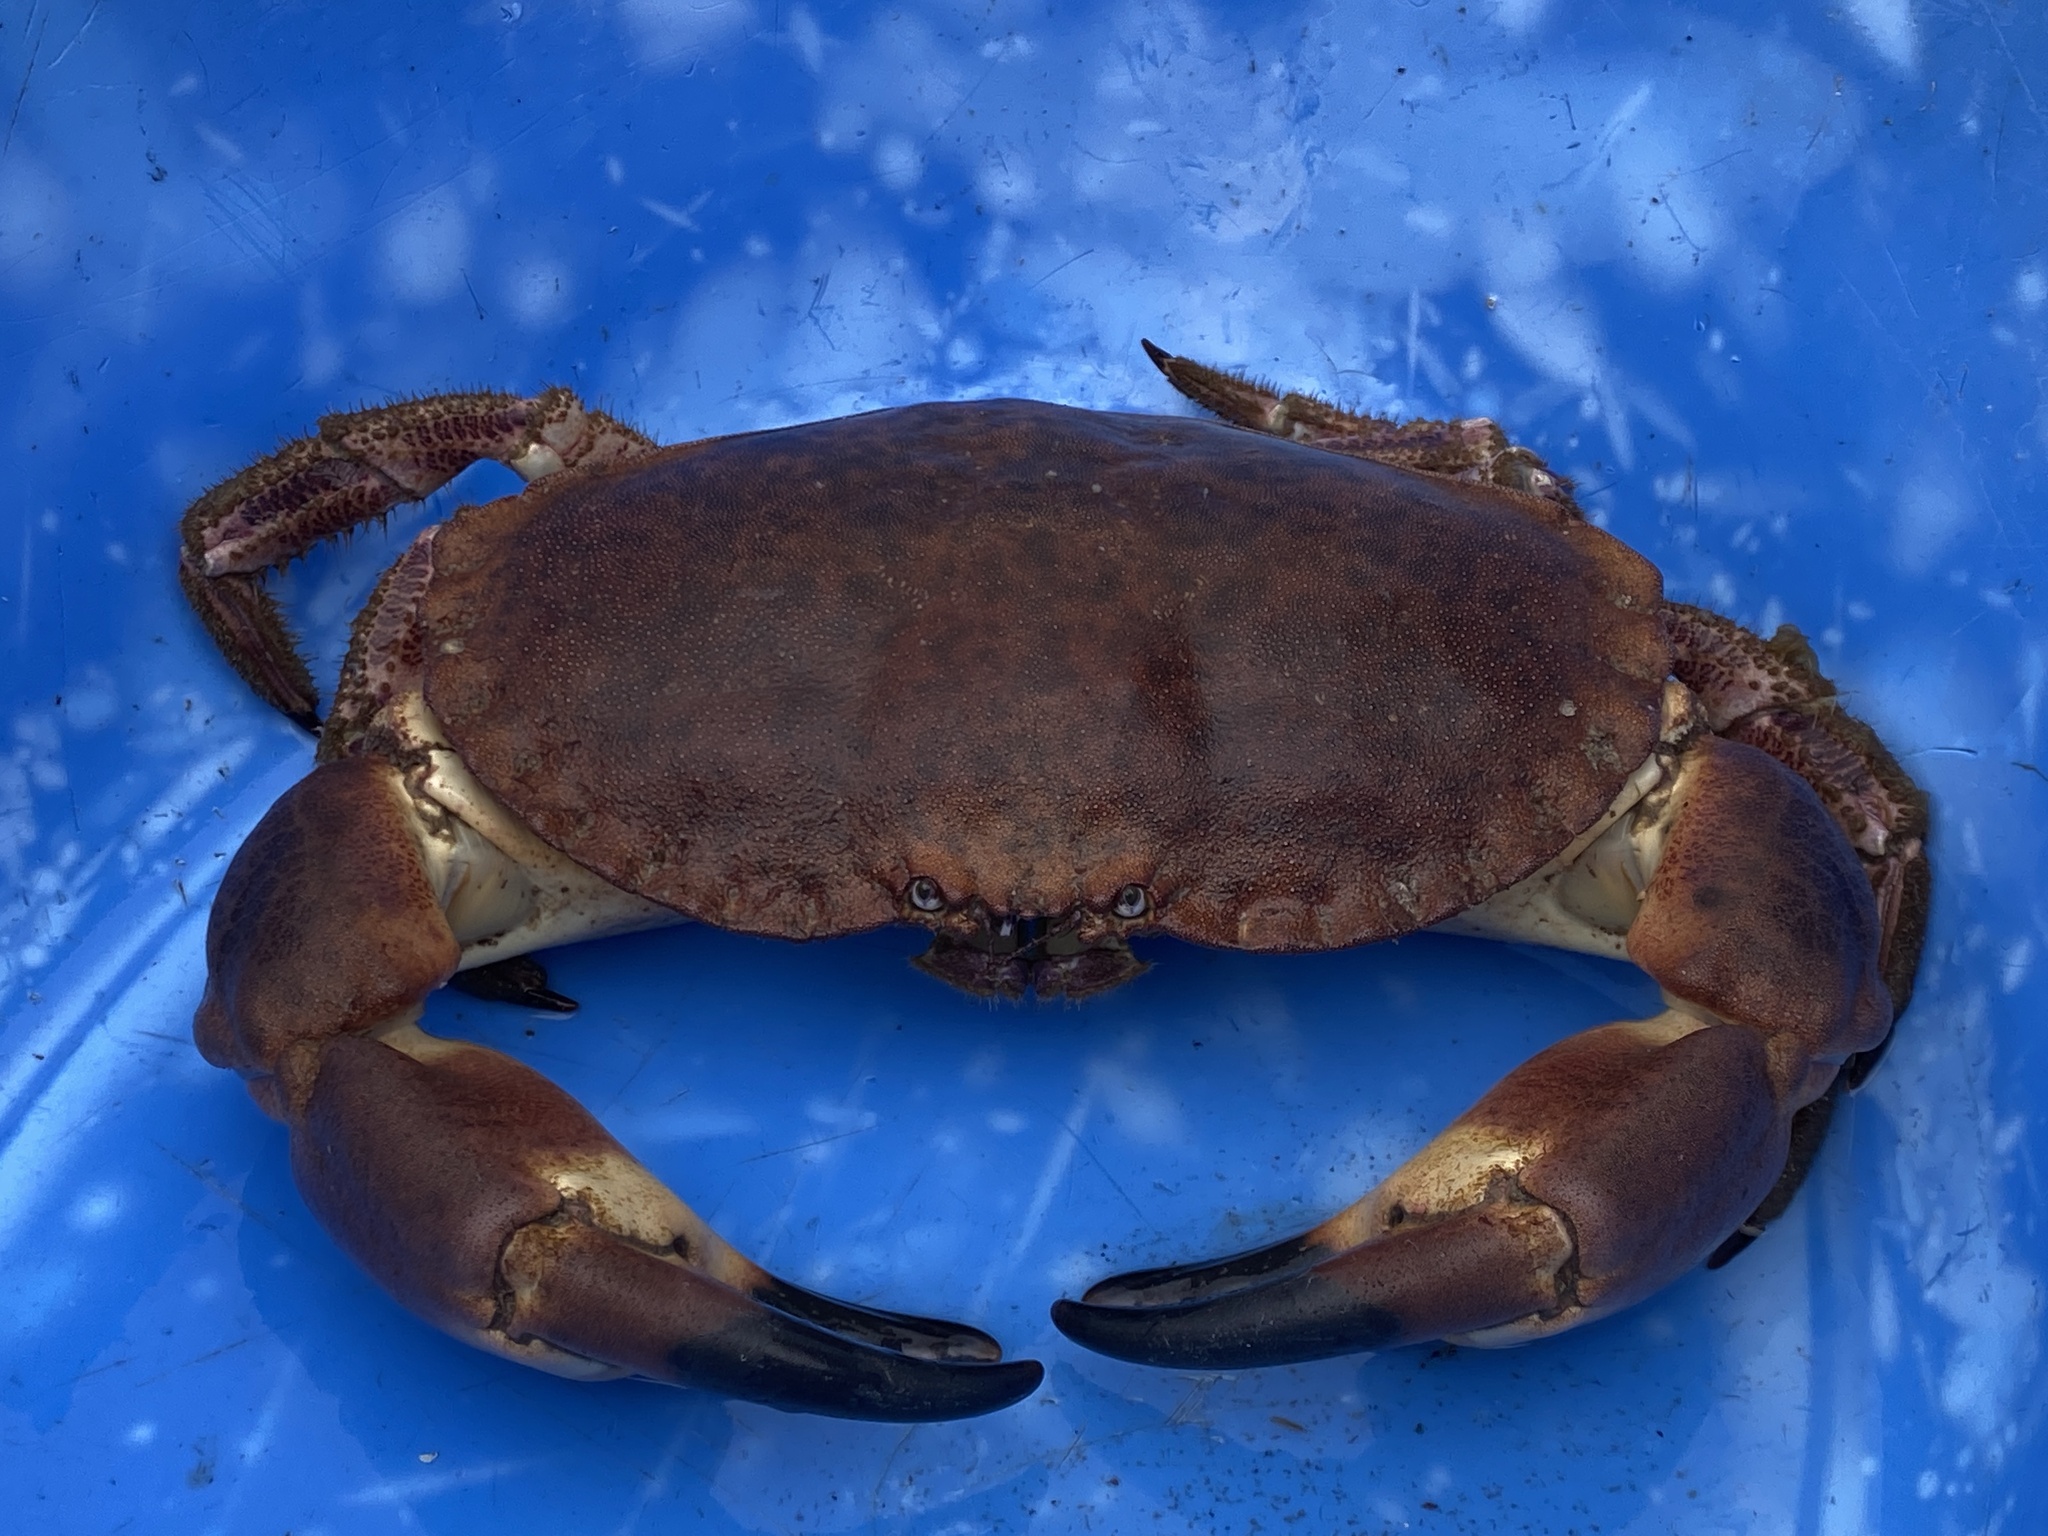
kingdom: Animalia
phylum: Arthropoda
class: Malacostraca
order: Decapoda
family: Cancridae
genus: Cancer
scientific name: Cancer pagurus
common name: Edible crab
